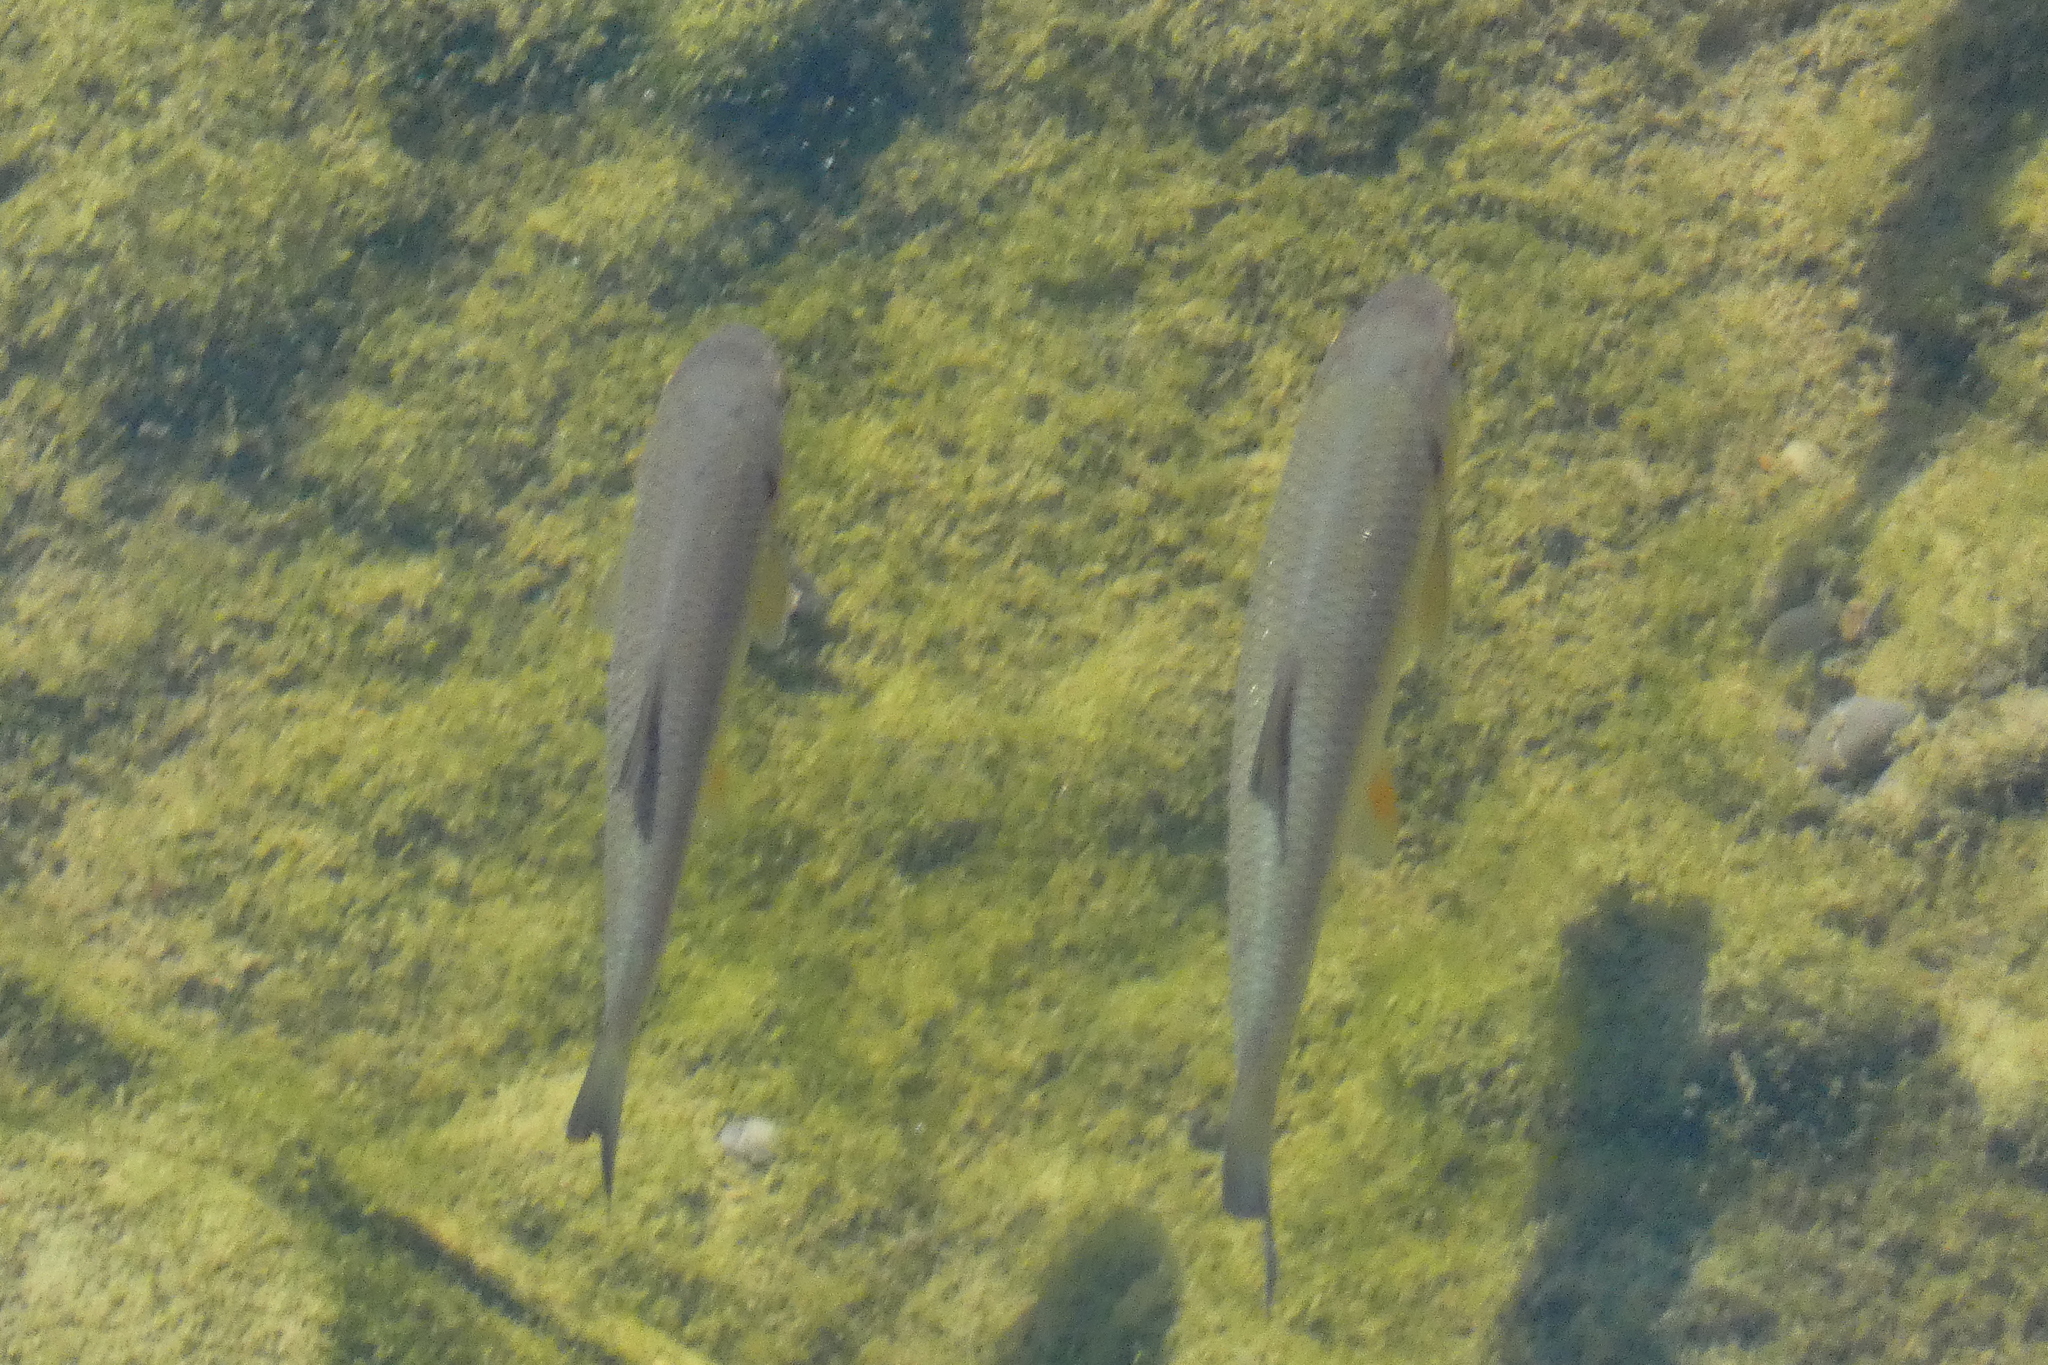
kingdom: Animalia
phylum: Chordata
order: Cypriniformes
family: Cyprinidae
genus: Squalius
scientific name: Squalius cephalus
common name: Chub
